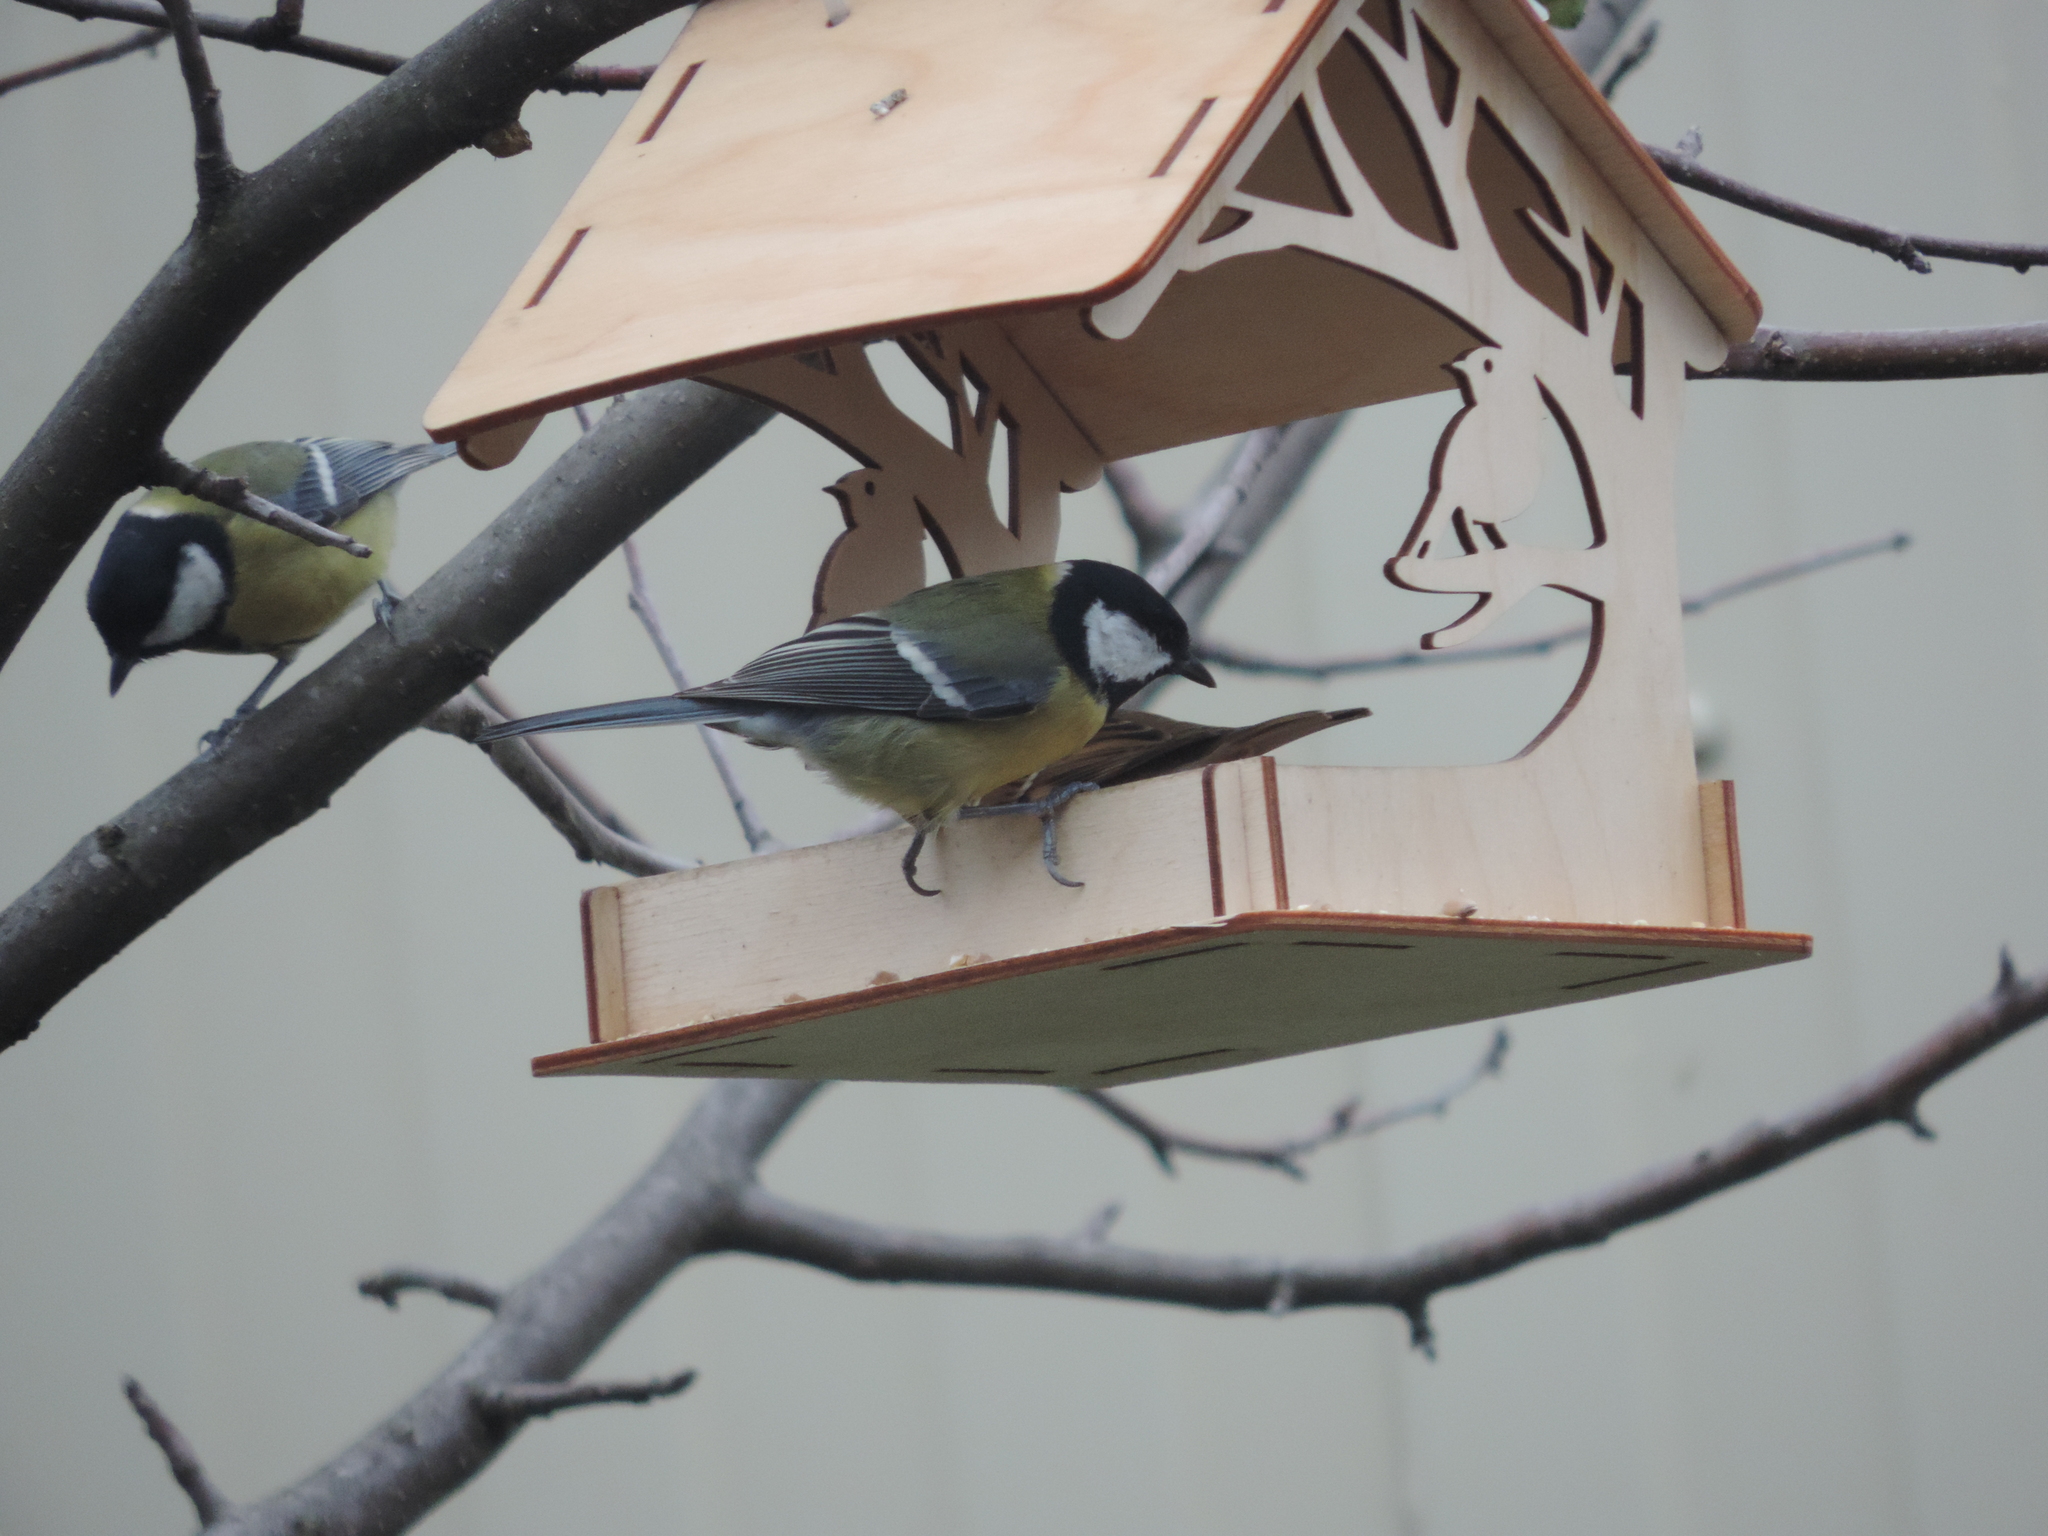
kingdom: Animalia
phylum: Chordata
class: Aves
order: Passeriformes
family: Paridae
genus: Parus
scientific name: Parus major
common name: Great tit
